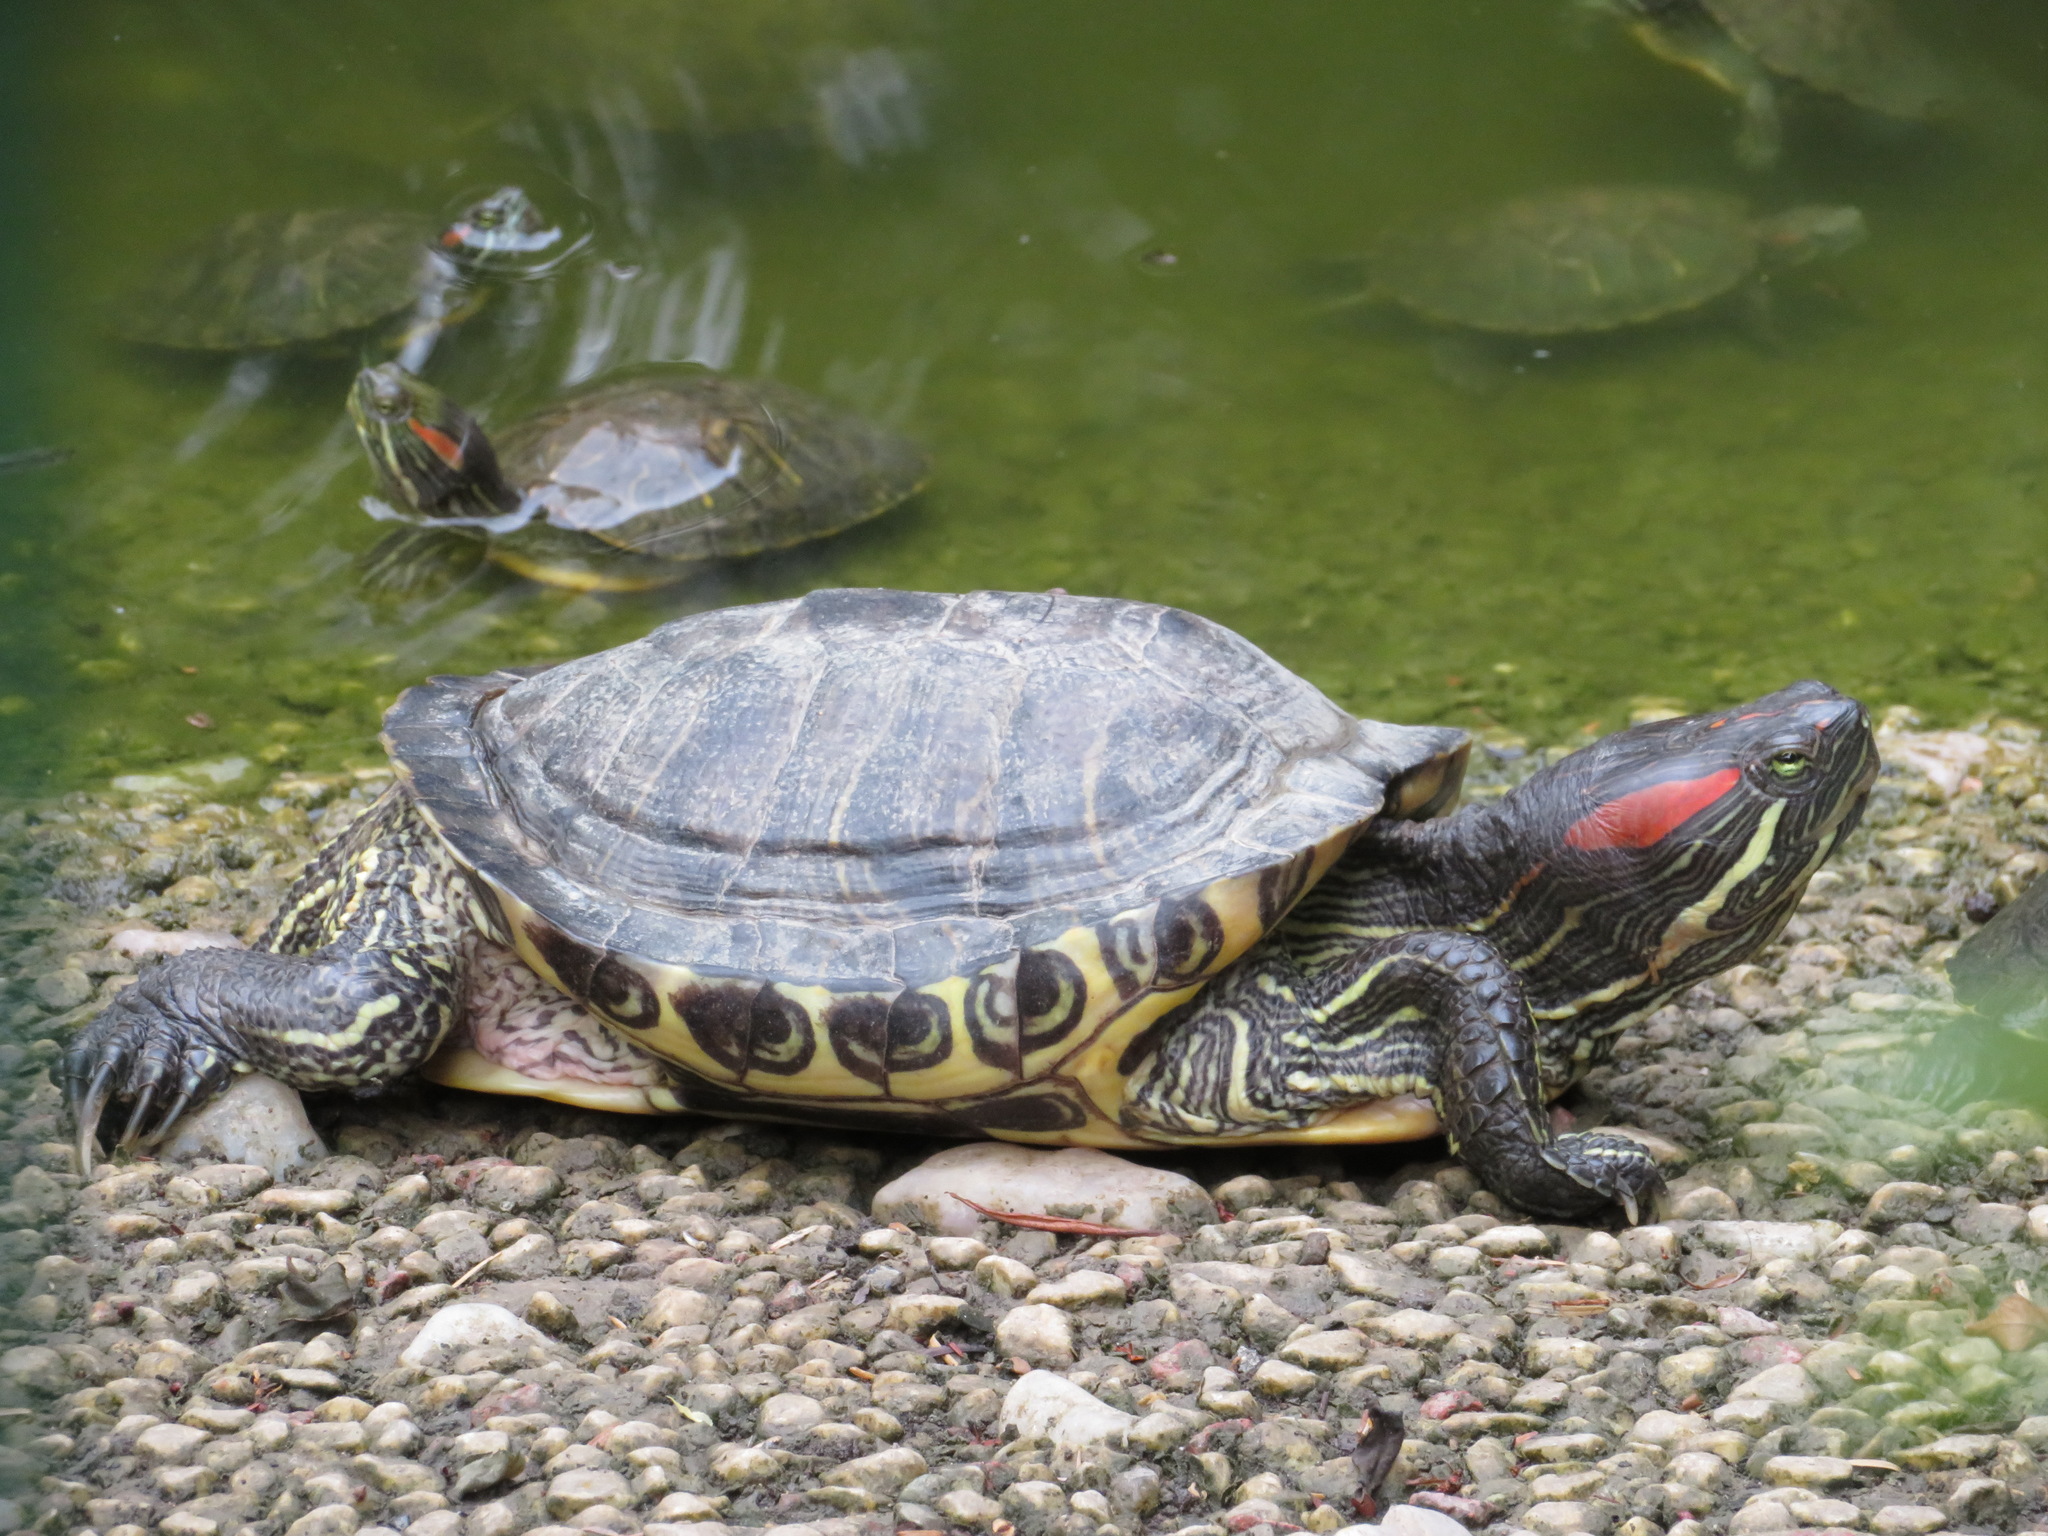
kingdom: Animalia
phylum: Chordata
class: Testudines
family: Emydidae
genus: Trachemys
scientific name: Trachemys scripta
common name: Slider
